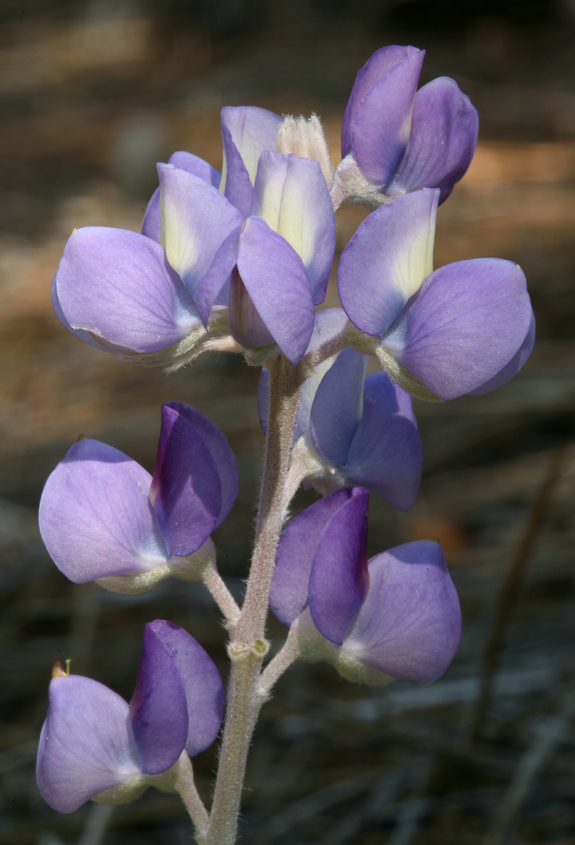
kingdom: Plantae
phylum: Tracheophyta
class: Magnoliopsida
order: Fabales
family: Fabaceae
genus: Lupinus
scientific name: Lupinus grayi
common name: Sierra lupine
